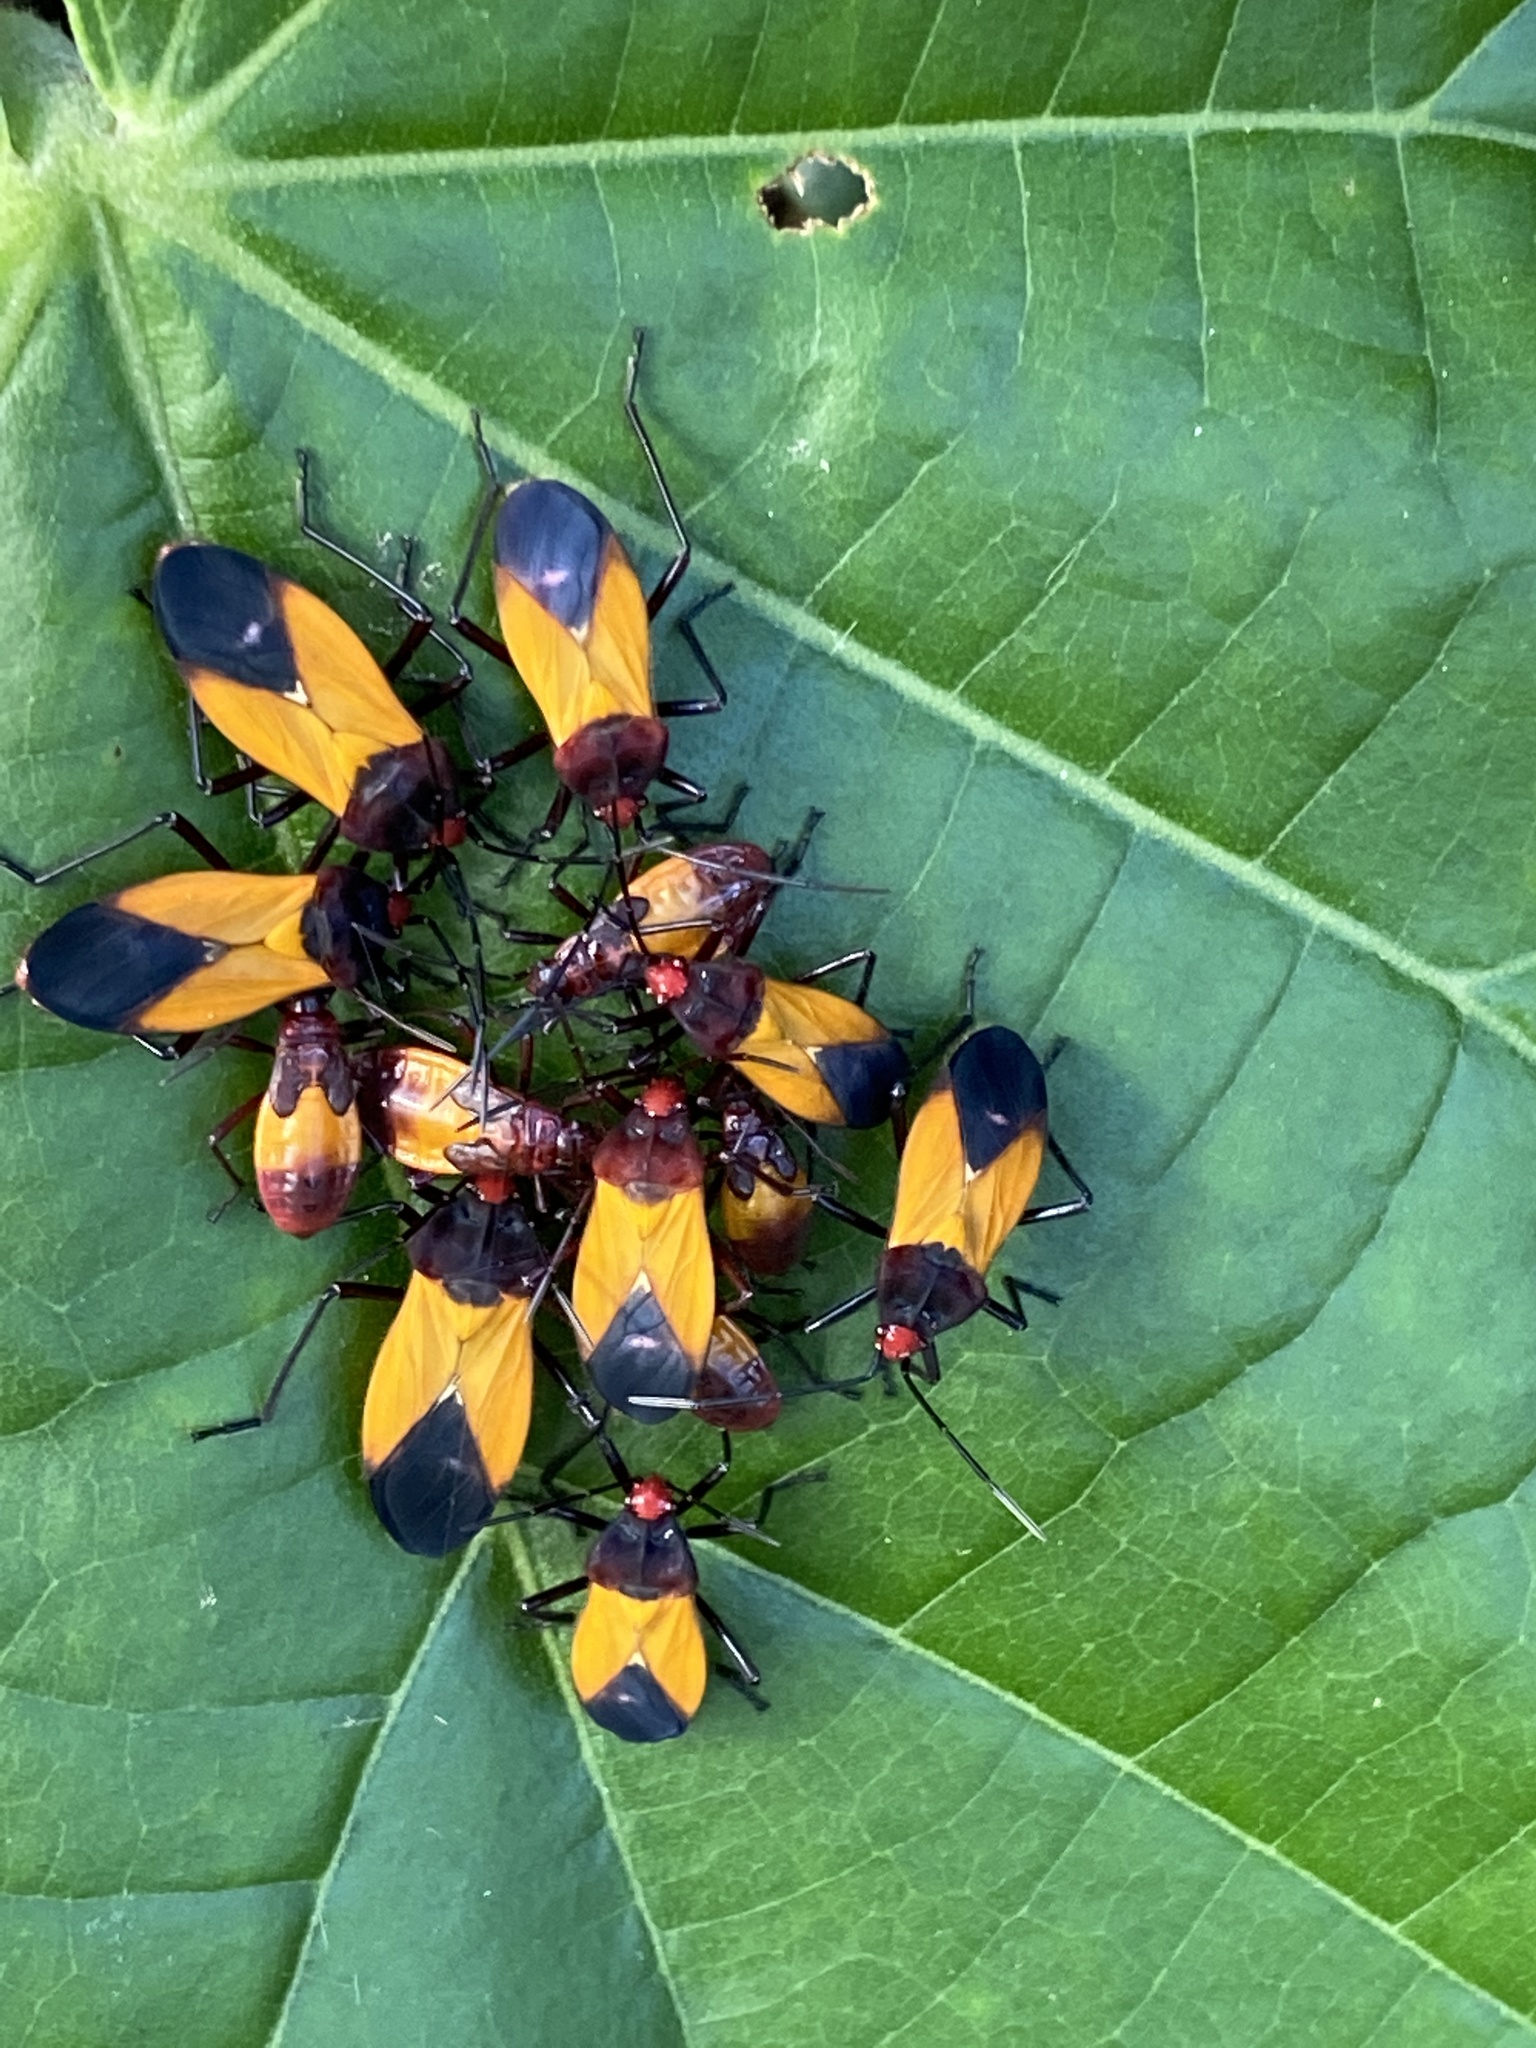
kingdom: Animalia
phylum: Arthropoda
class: Insecta
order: Hemiptera
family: Lygaeidae
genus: Oncopeltus
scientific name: Oncopeltus sordidus
